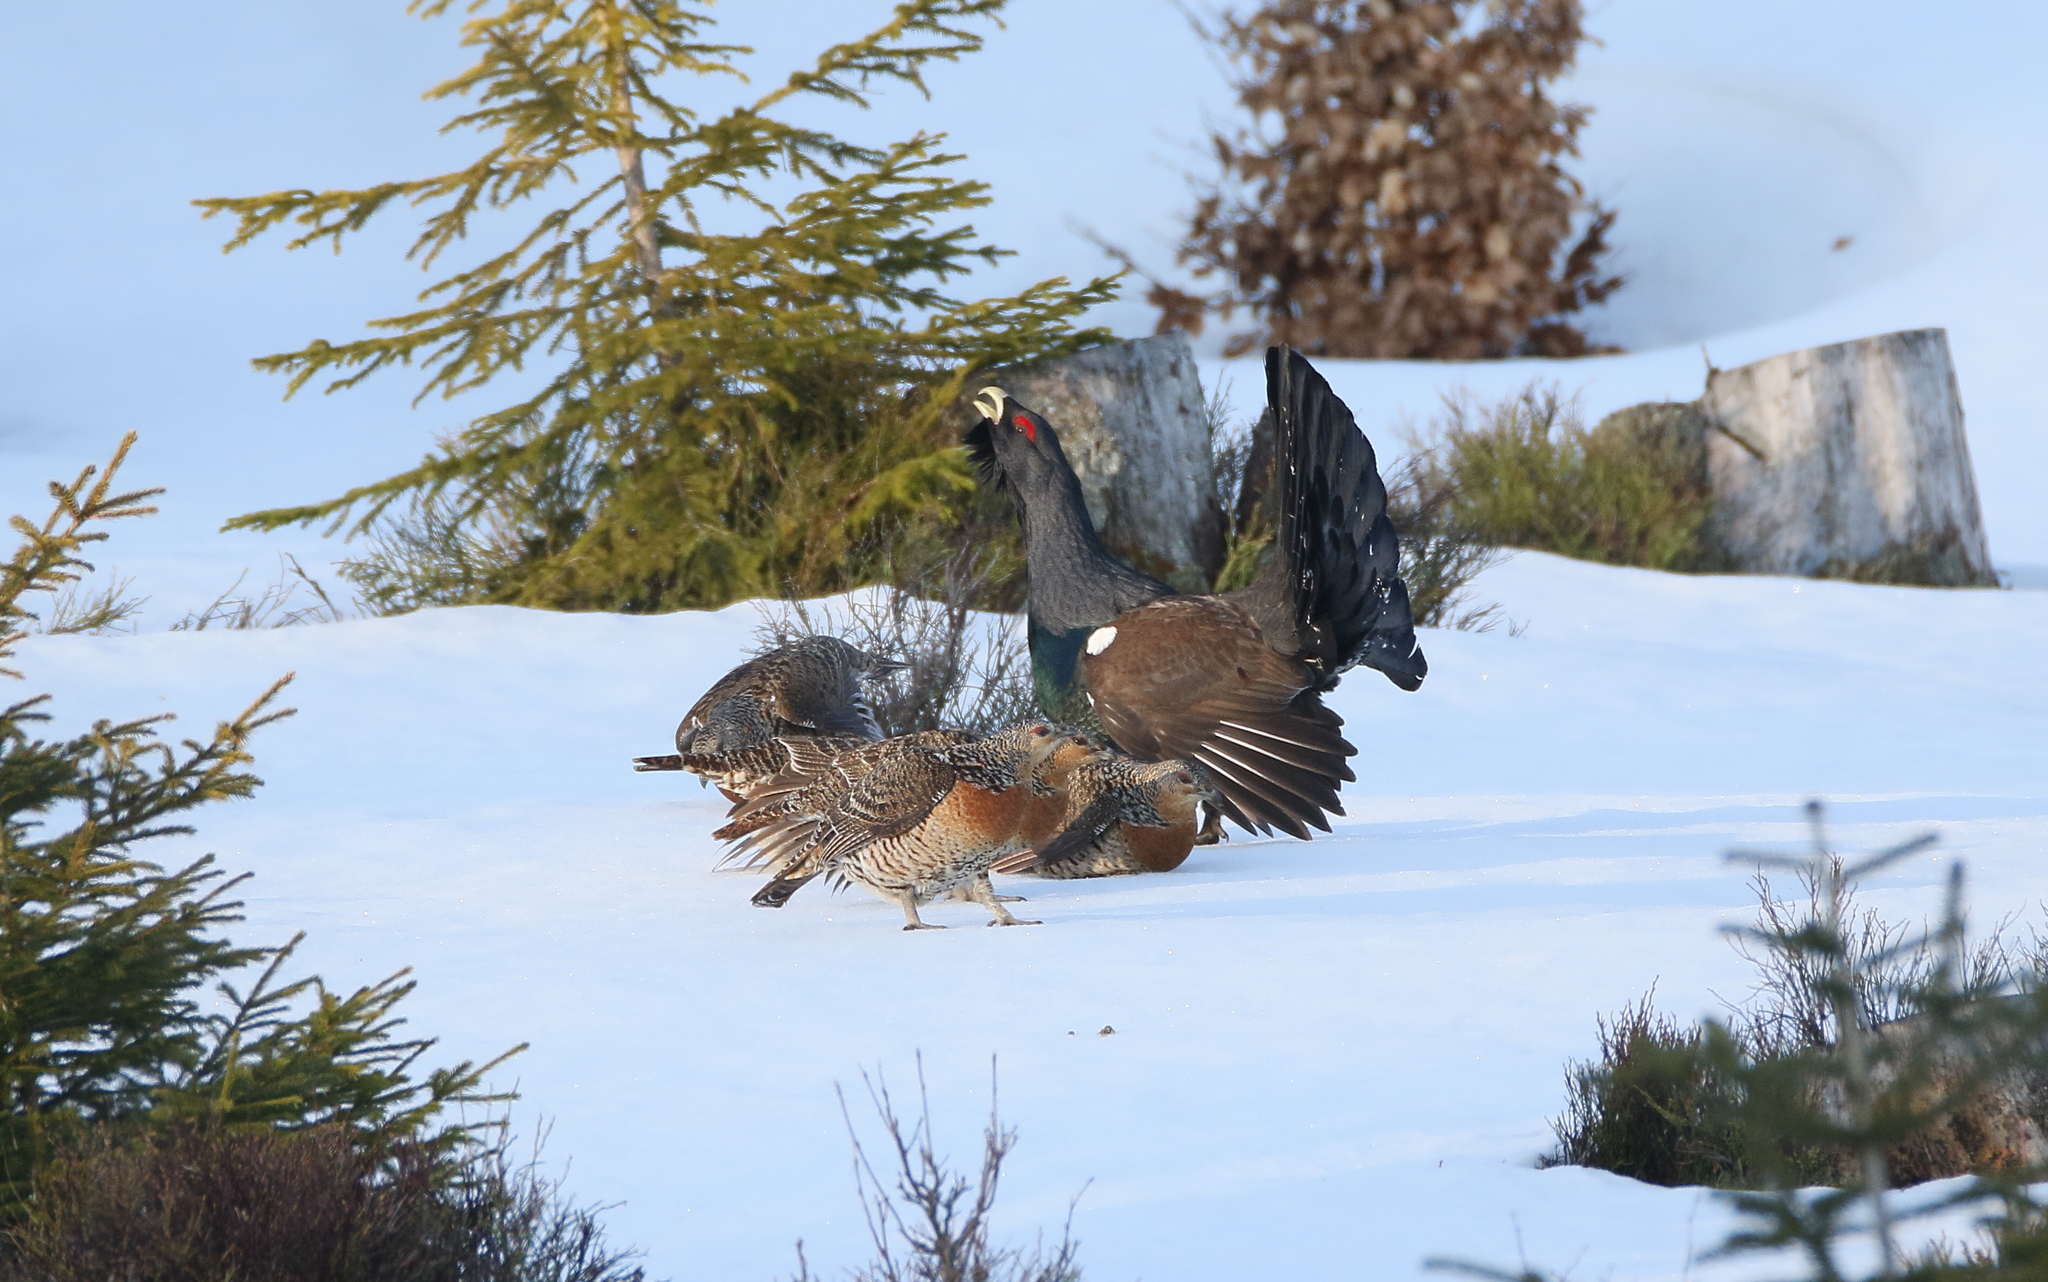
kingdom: Animalia
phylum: Chordata
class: Aves
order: Galliformes
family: Phasianidae
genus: Tetrao
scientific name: Tetrao urogallus
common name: Western capercaillie
